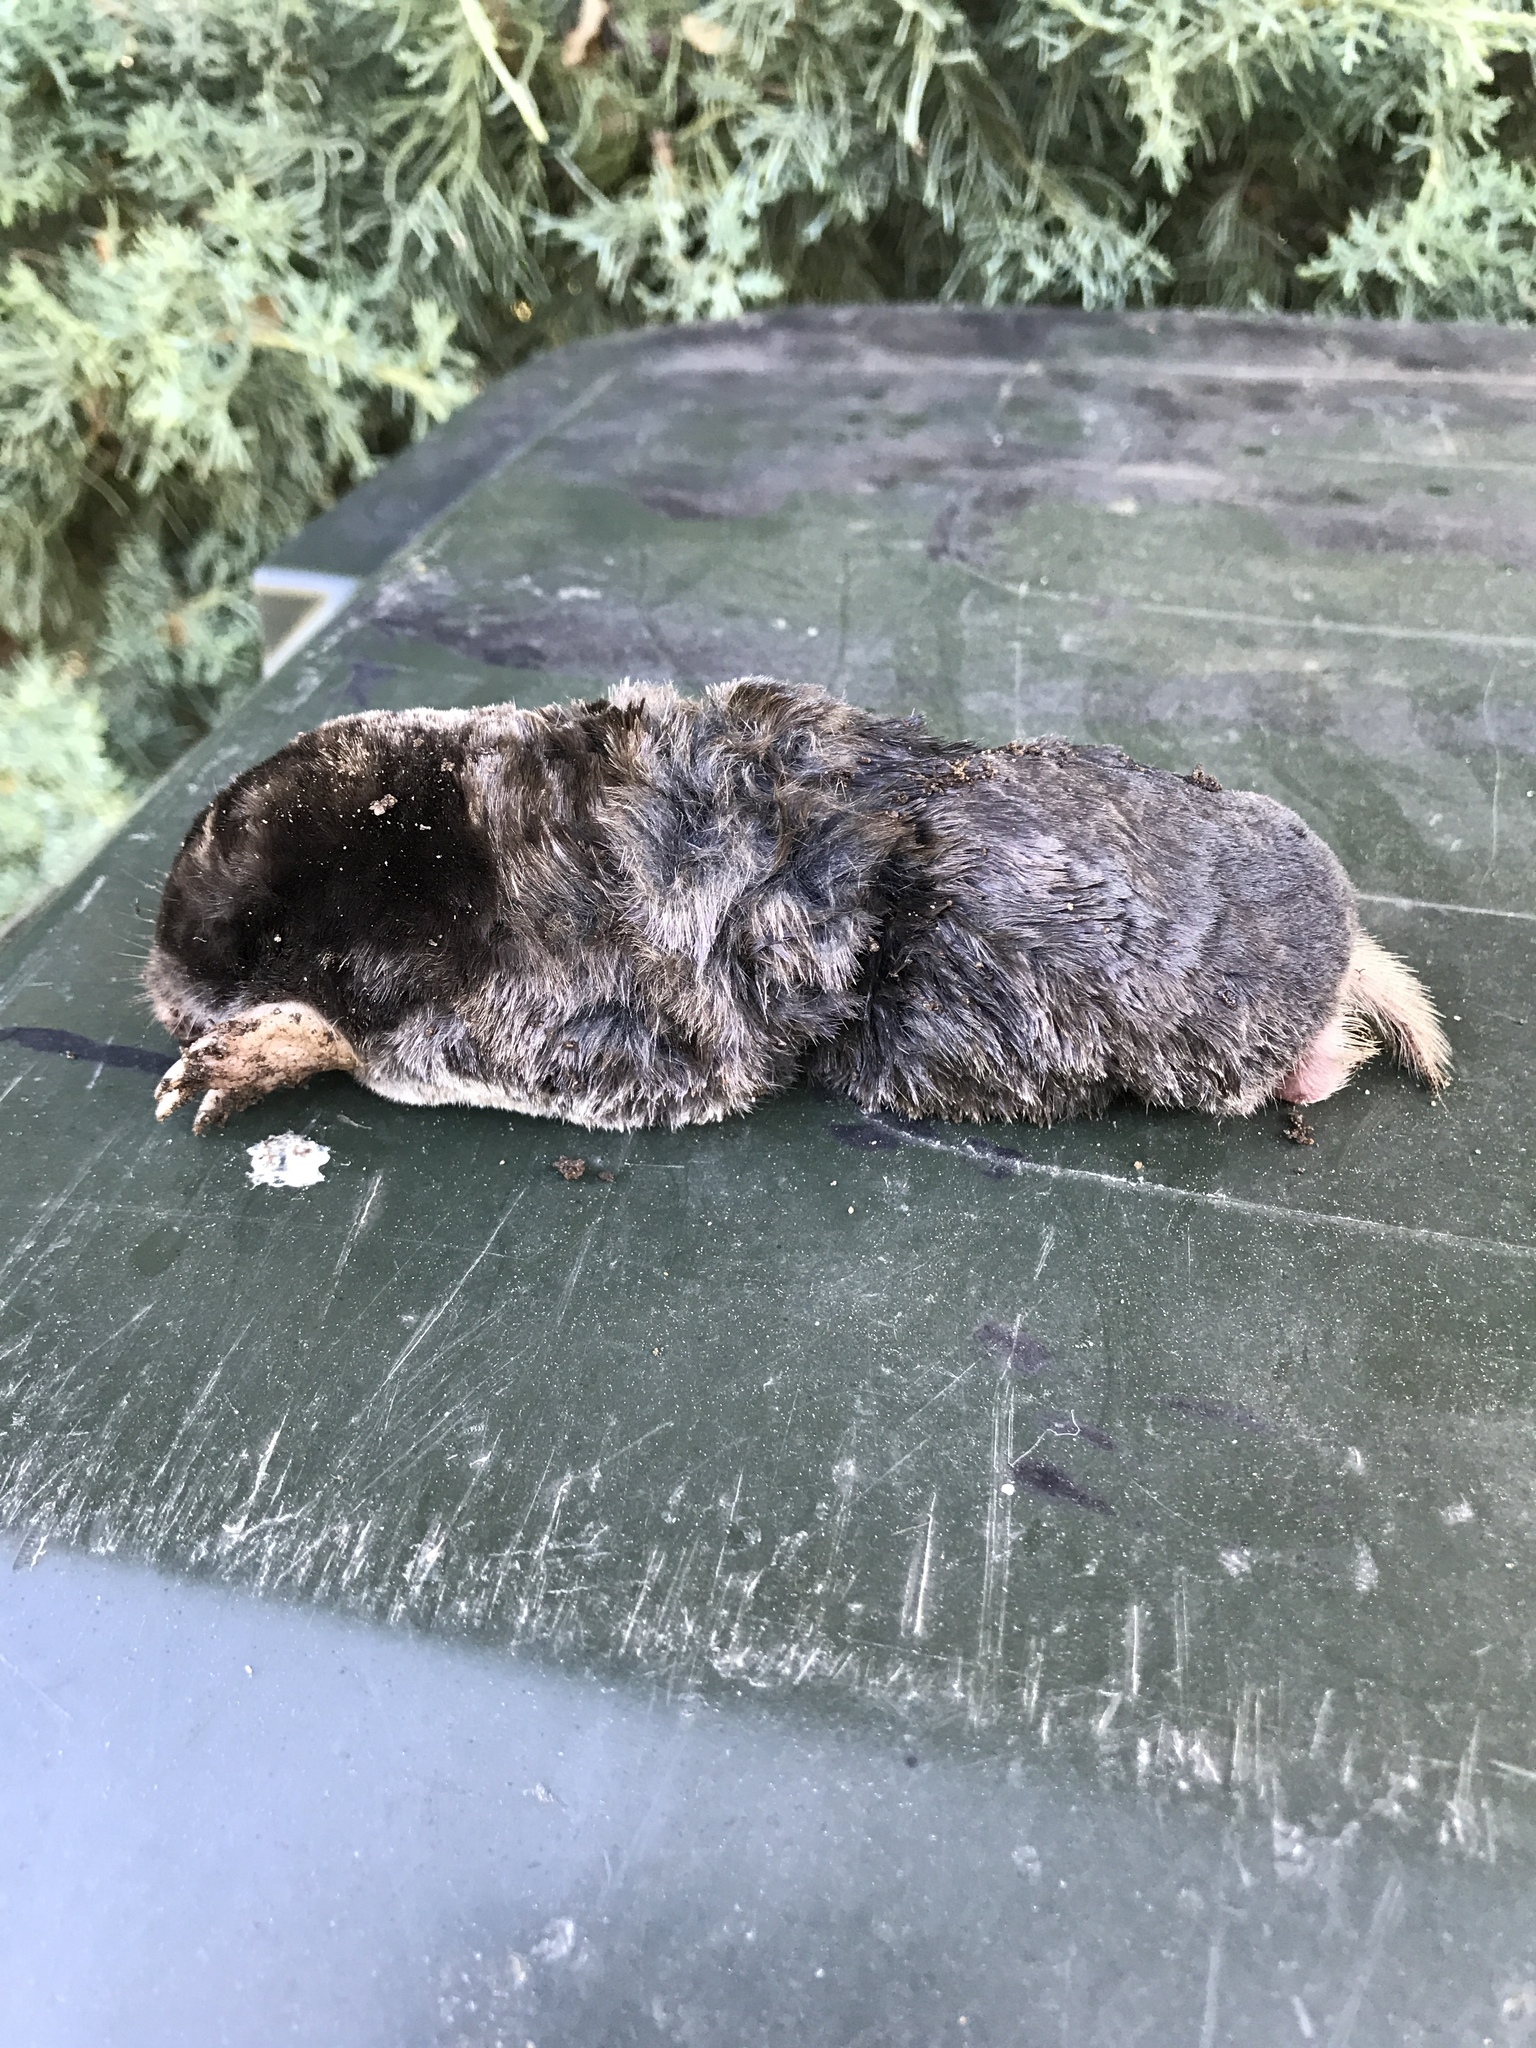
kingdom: Animalia
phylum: Chordata
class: Mammalia
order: Soricomorpha
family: Talpidae
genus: Scapanus
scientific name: Scapanus latimanus
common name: Broad-footed mole
